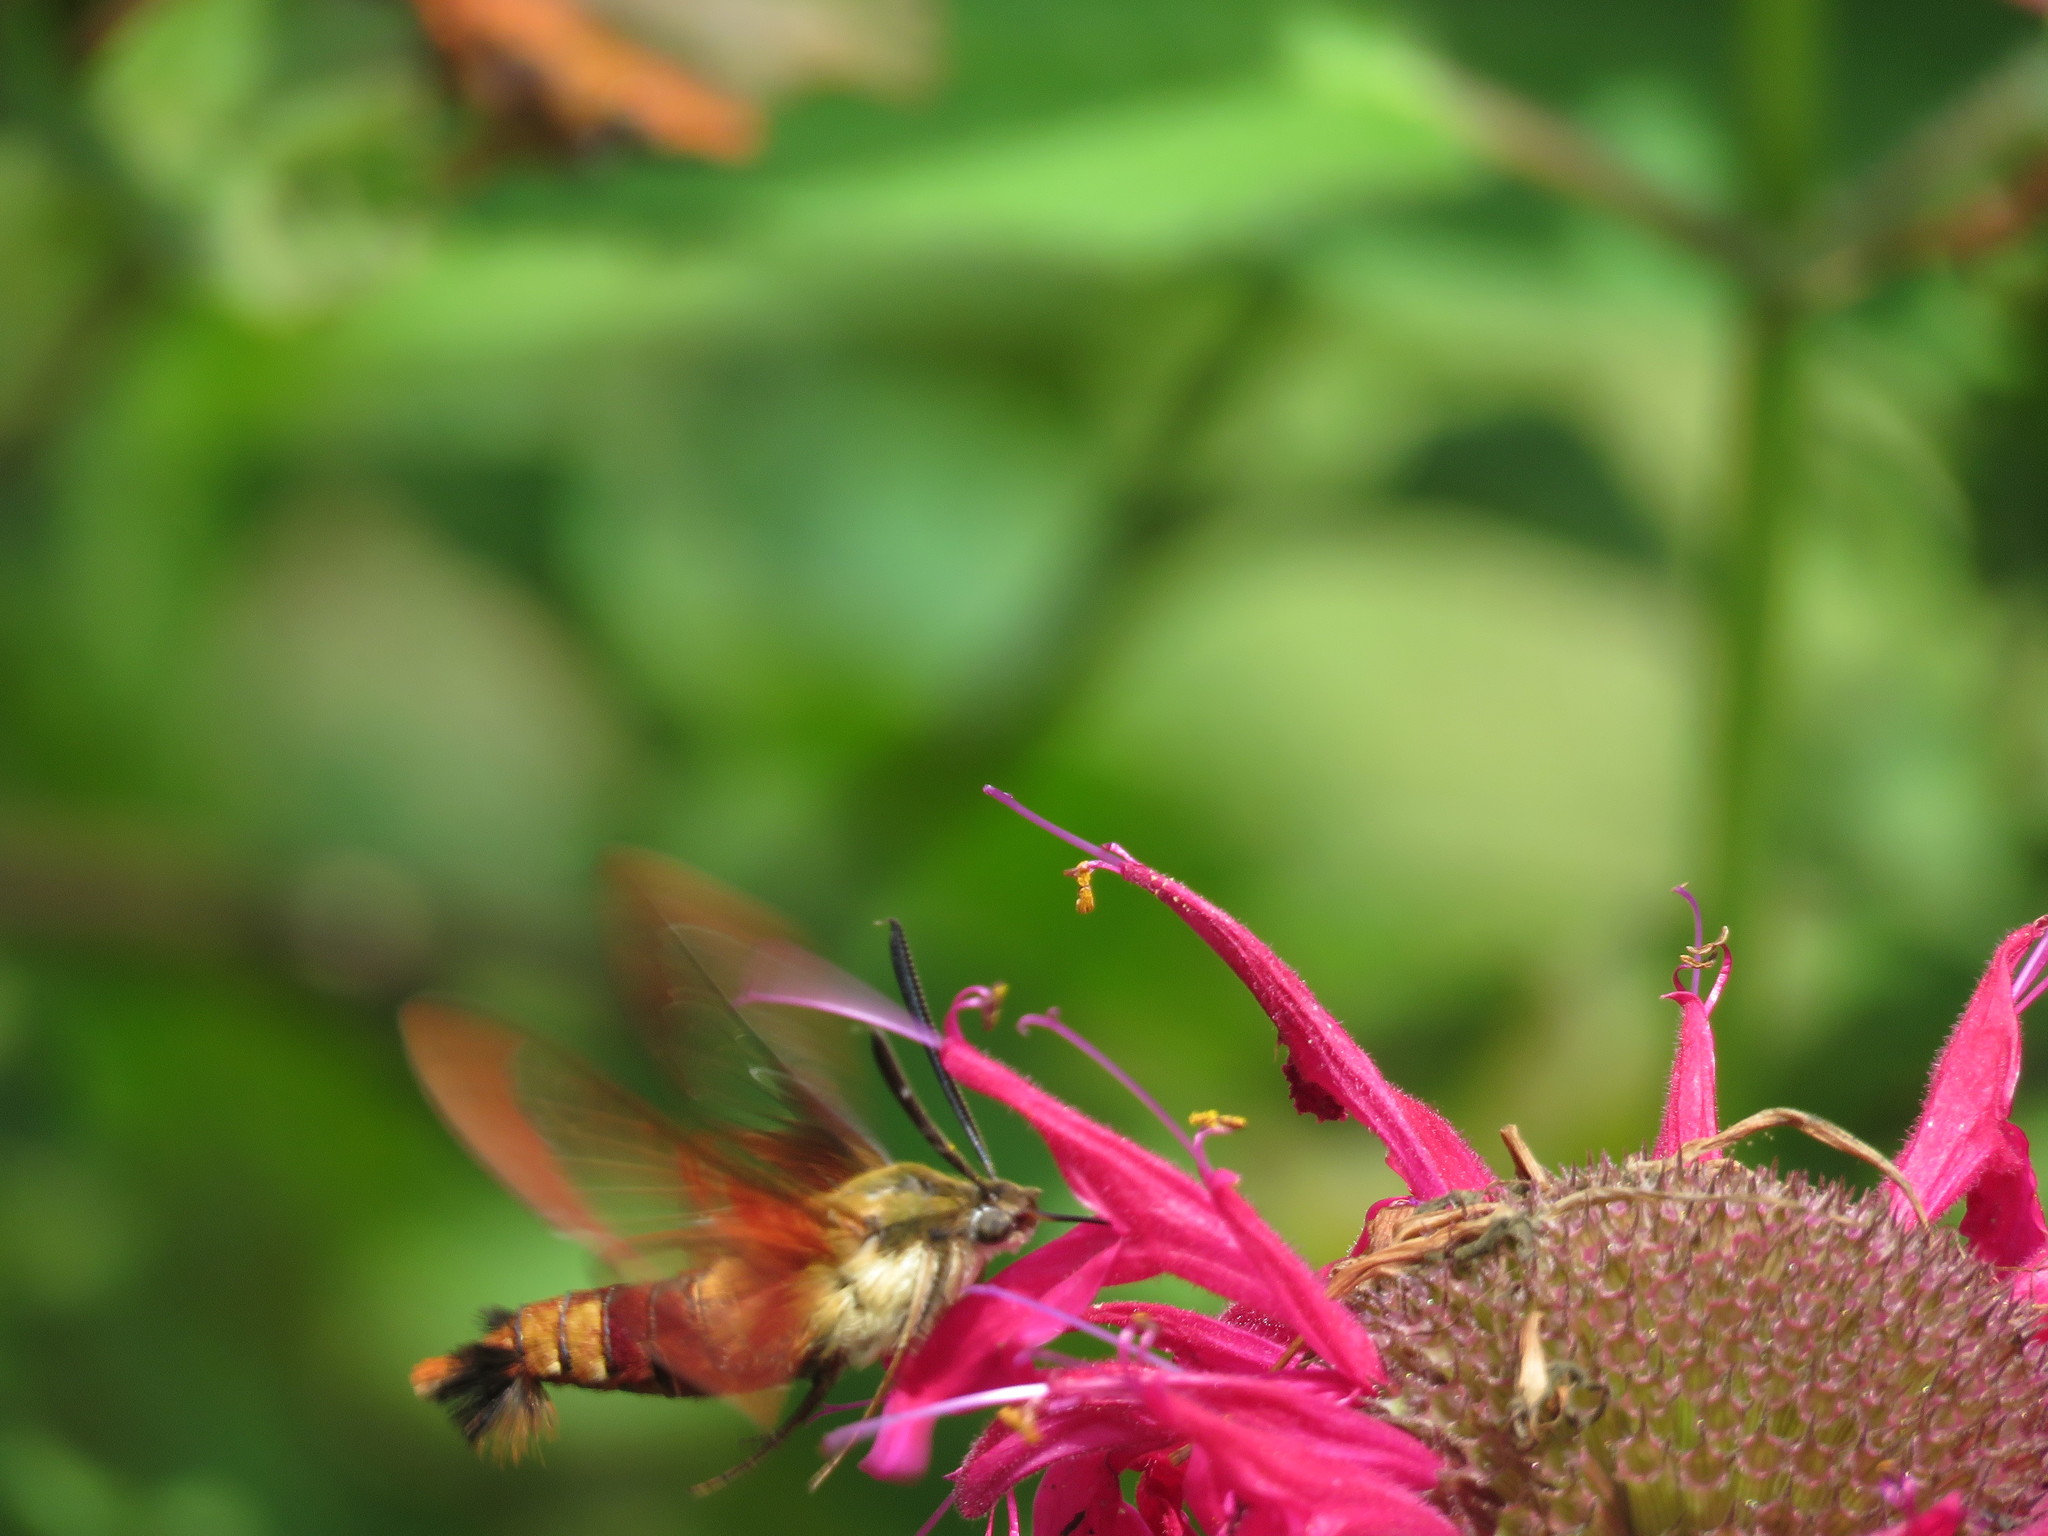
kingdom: Animalia
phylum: Arthropoda
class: Insecta
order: Lepidoptera
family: Sphingidae
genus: Hemaris
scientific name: Hemaris thysbe
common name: Common clear-wing
